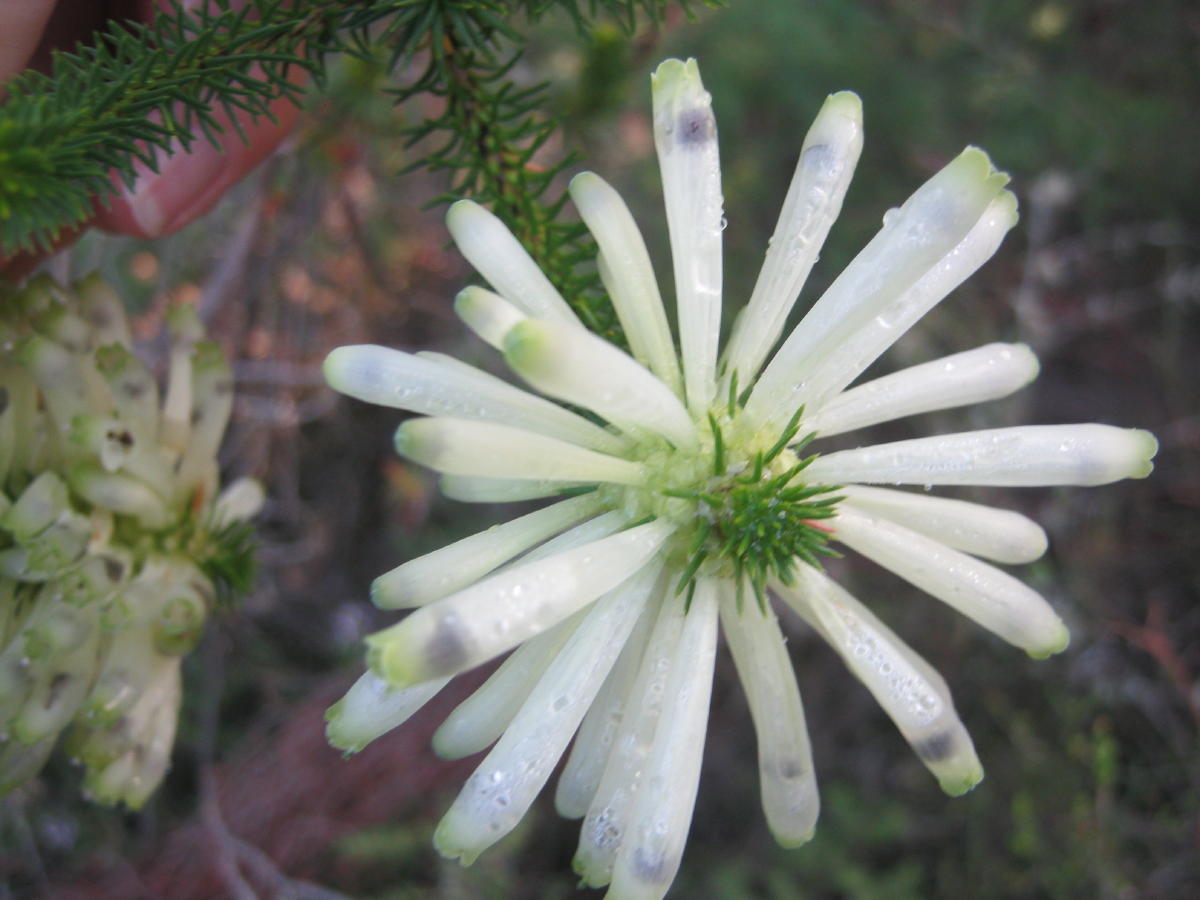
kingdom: Plantae
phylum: Tracheophyta
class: Magnoliopsida
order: Ericales
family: Ericaceae
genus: Erica
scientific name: Erica sessiliflora
